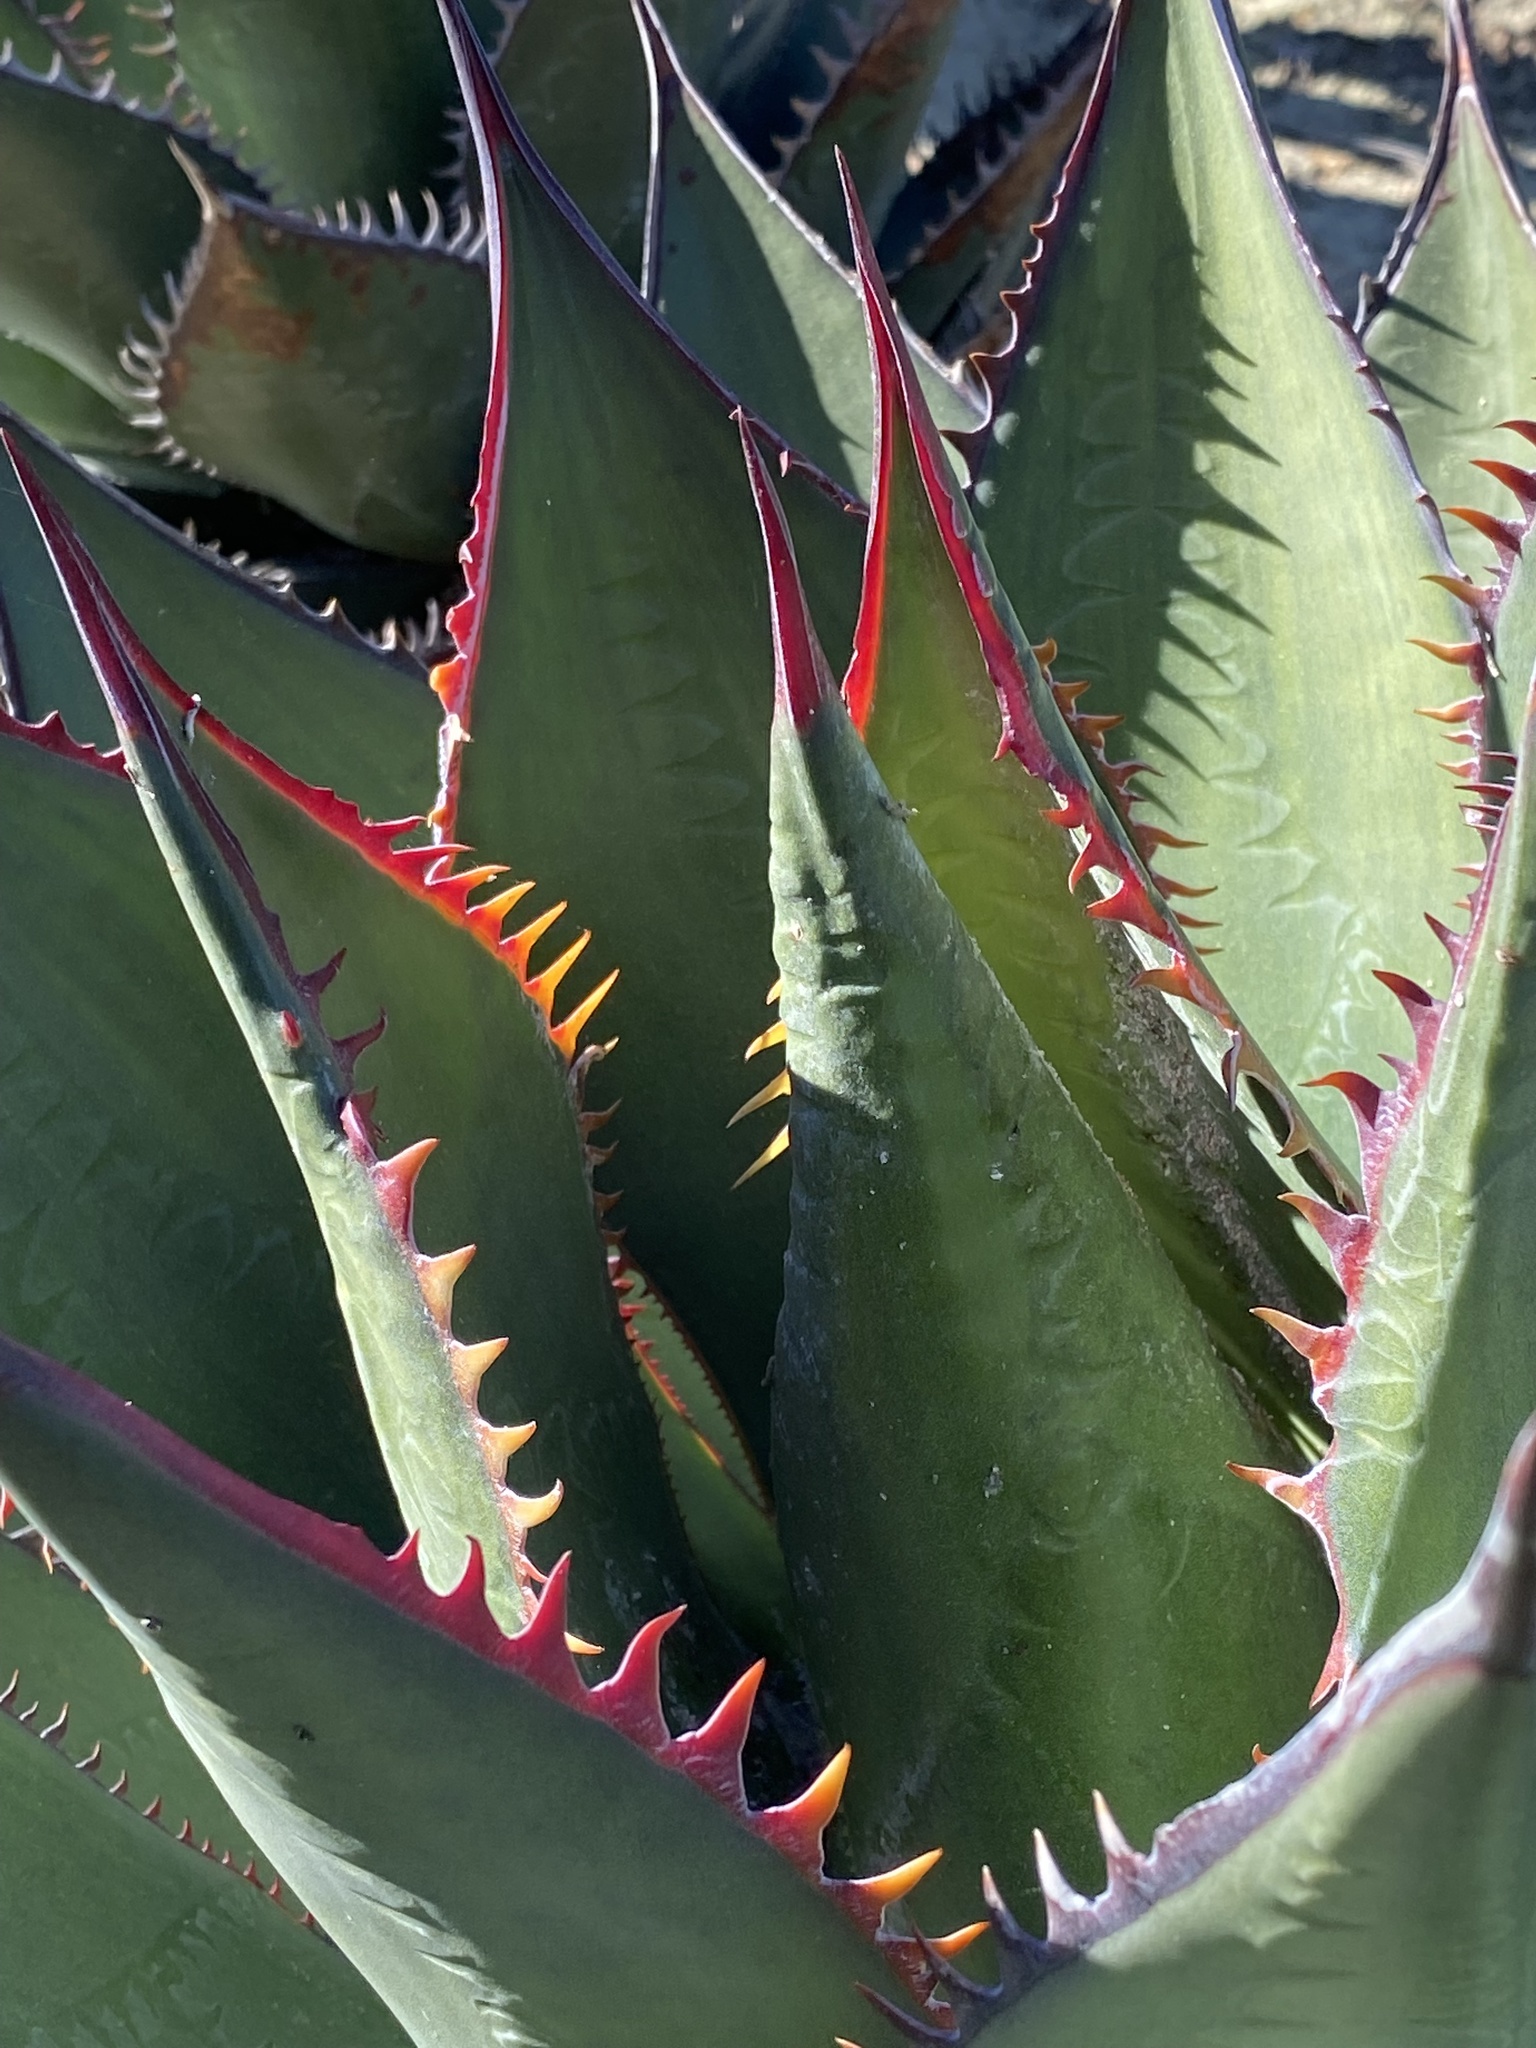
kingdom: Plantae
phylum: Tracheophyta
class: Liliopsida
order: Asparagales
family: Asparagaceae
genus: Agave
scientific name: Agave shawii
